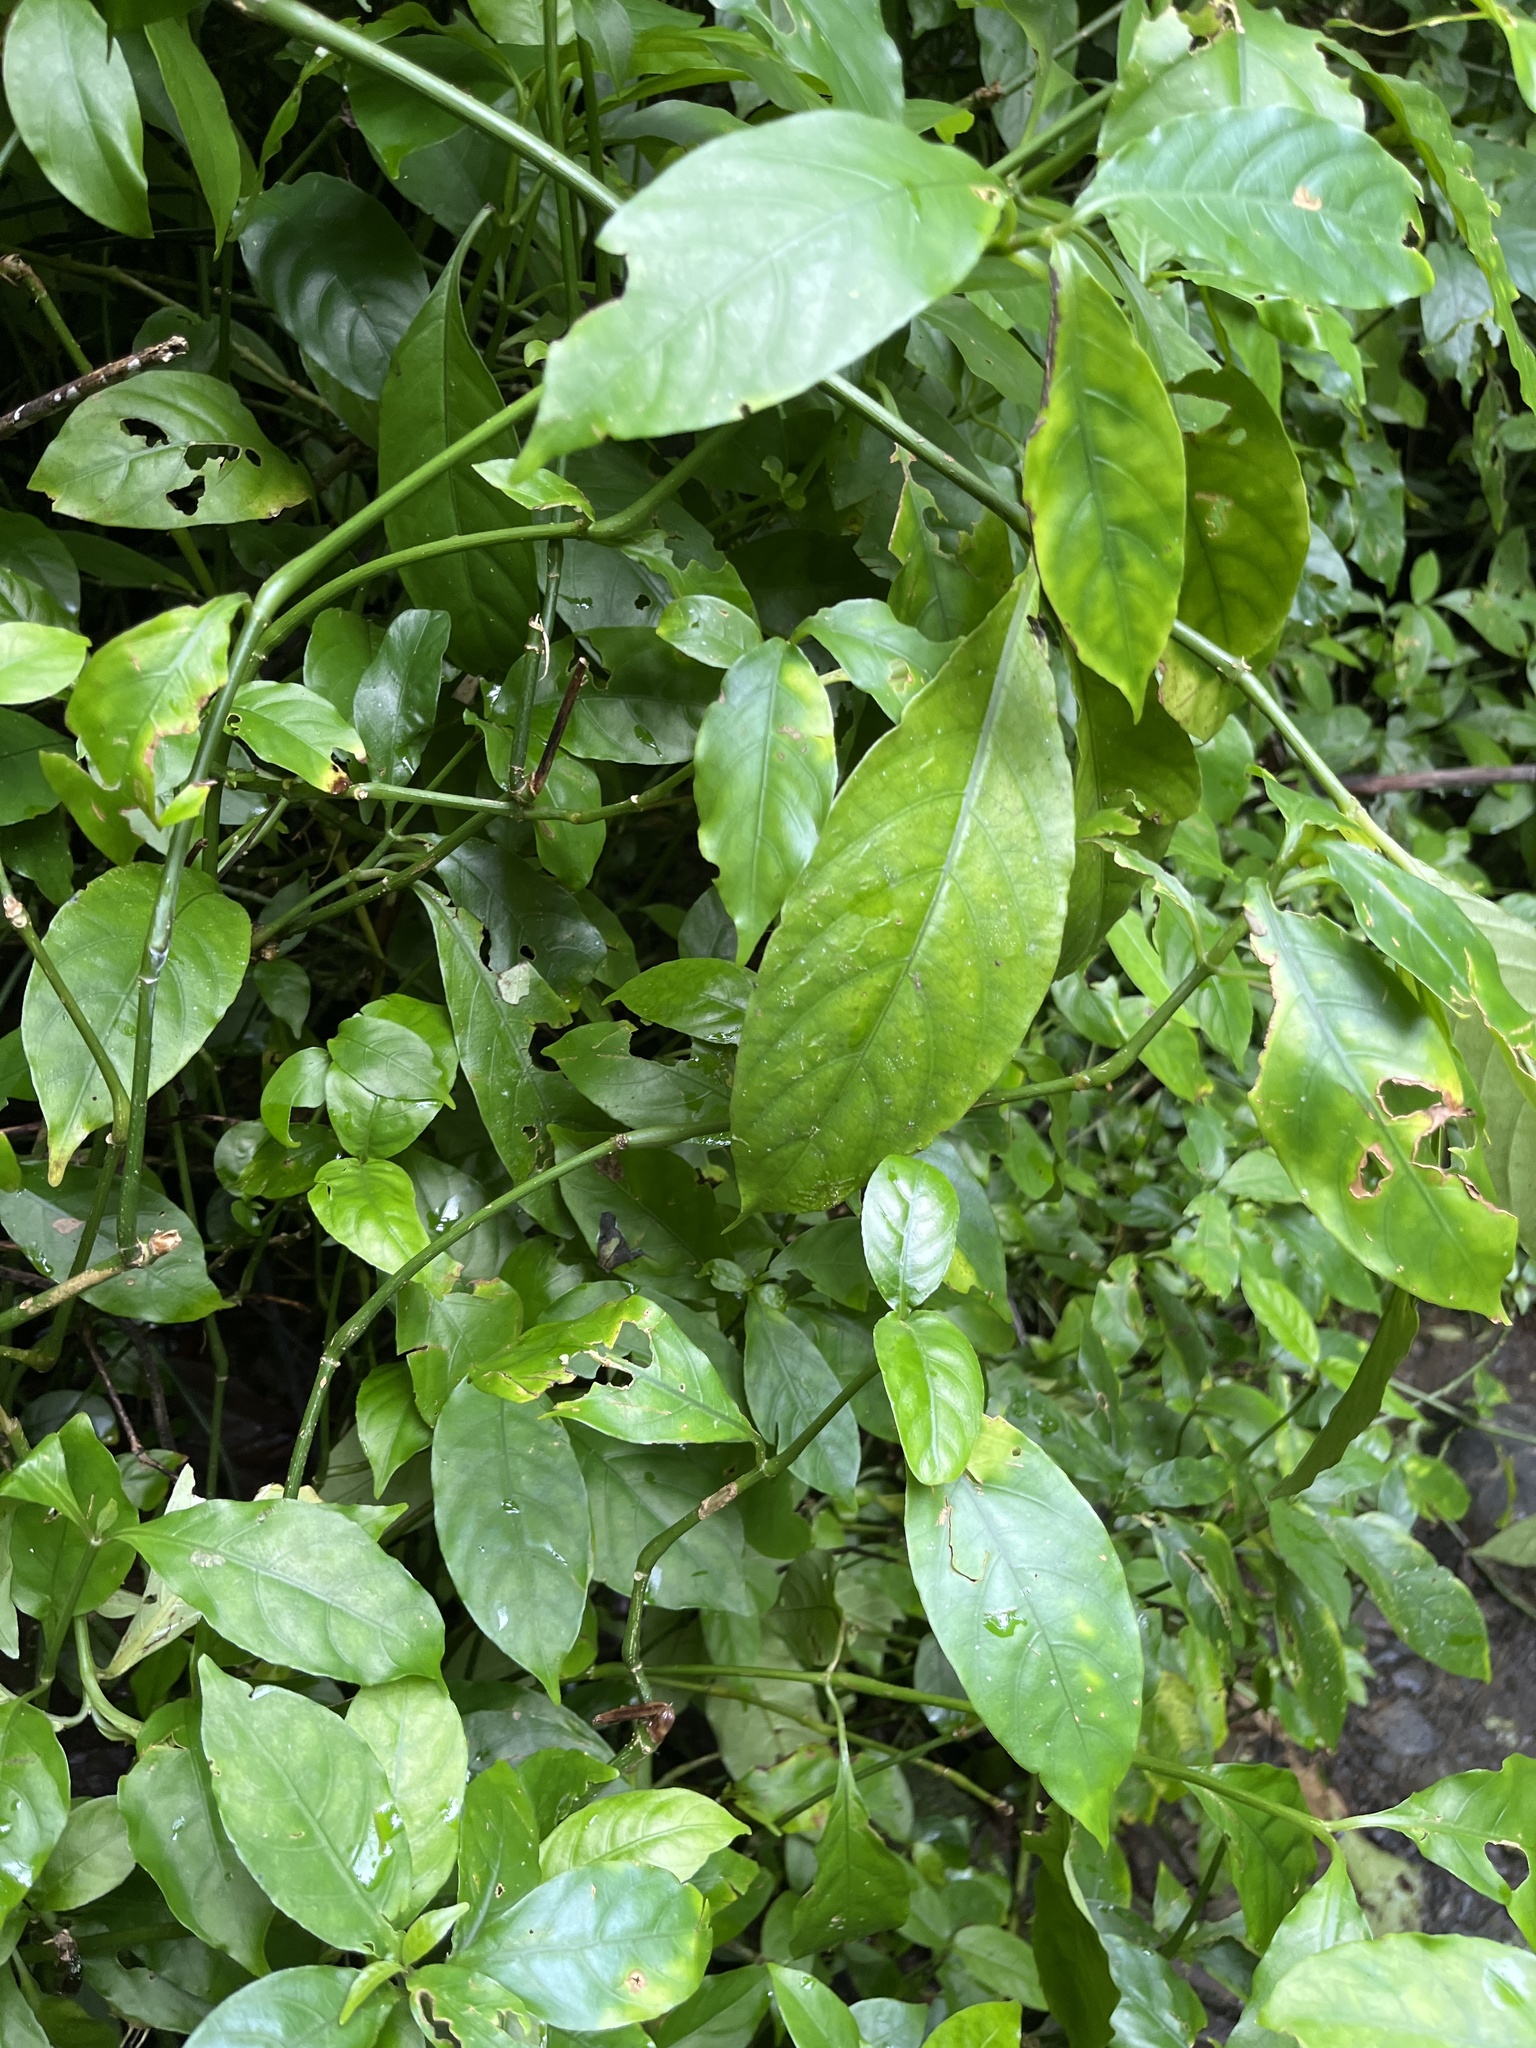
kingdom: Plantae
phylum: Tracheophyta
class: Magnoliopsida
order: Lamiales
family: Acanthaceae
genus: Odontonema
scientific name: Odontonema cuspidatum
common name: Mottled toothedthread
